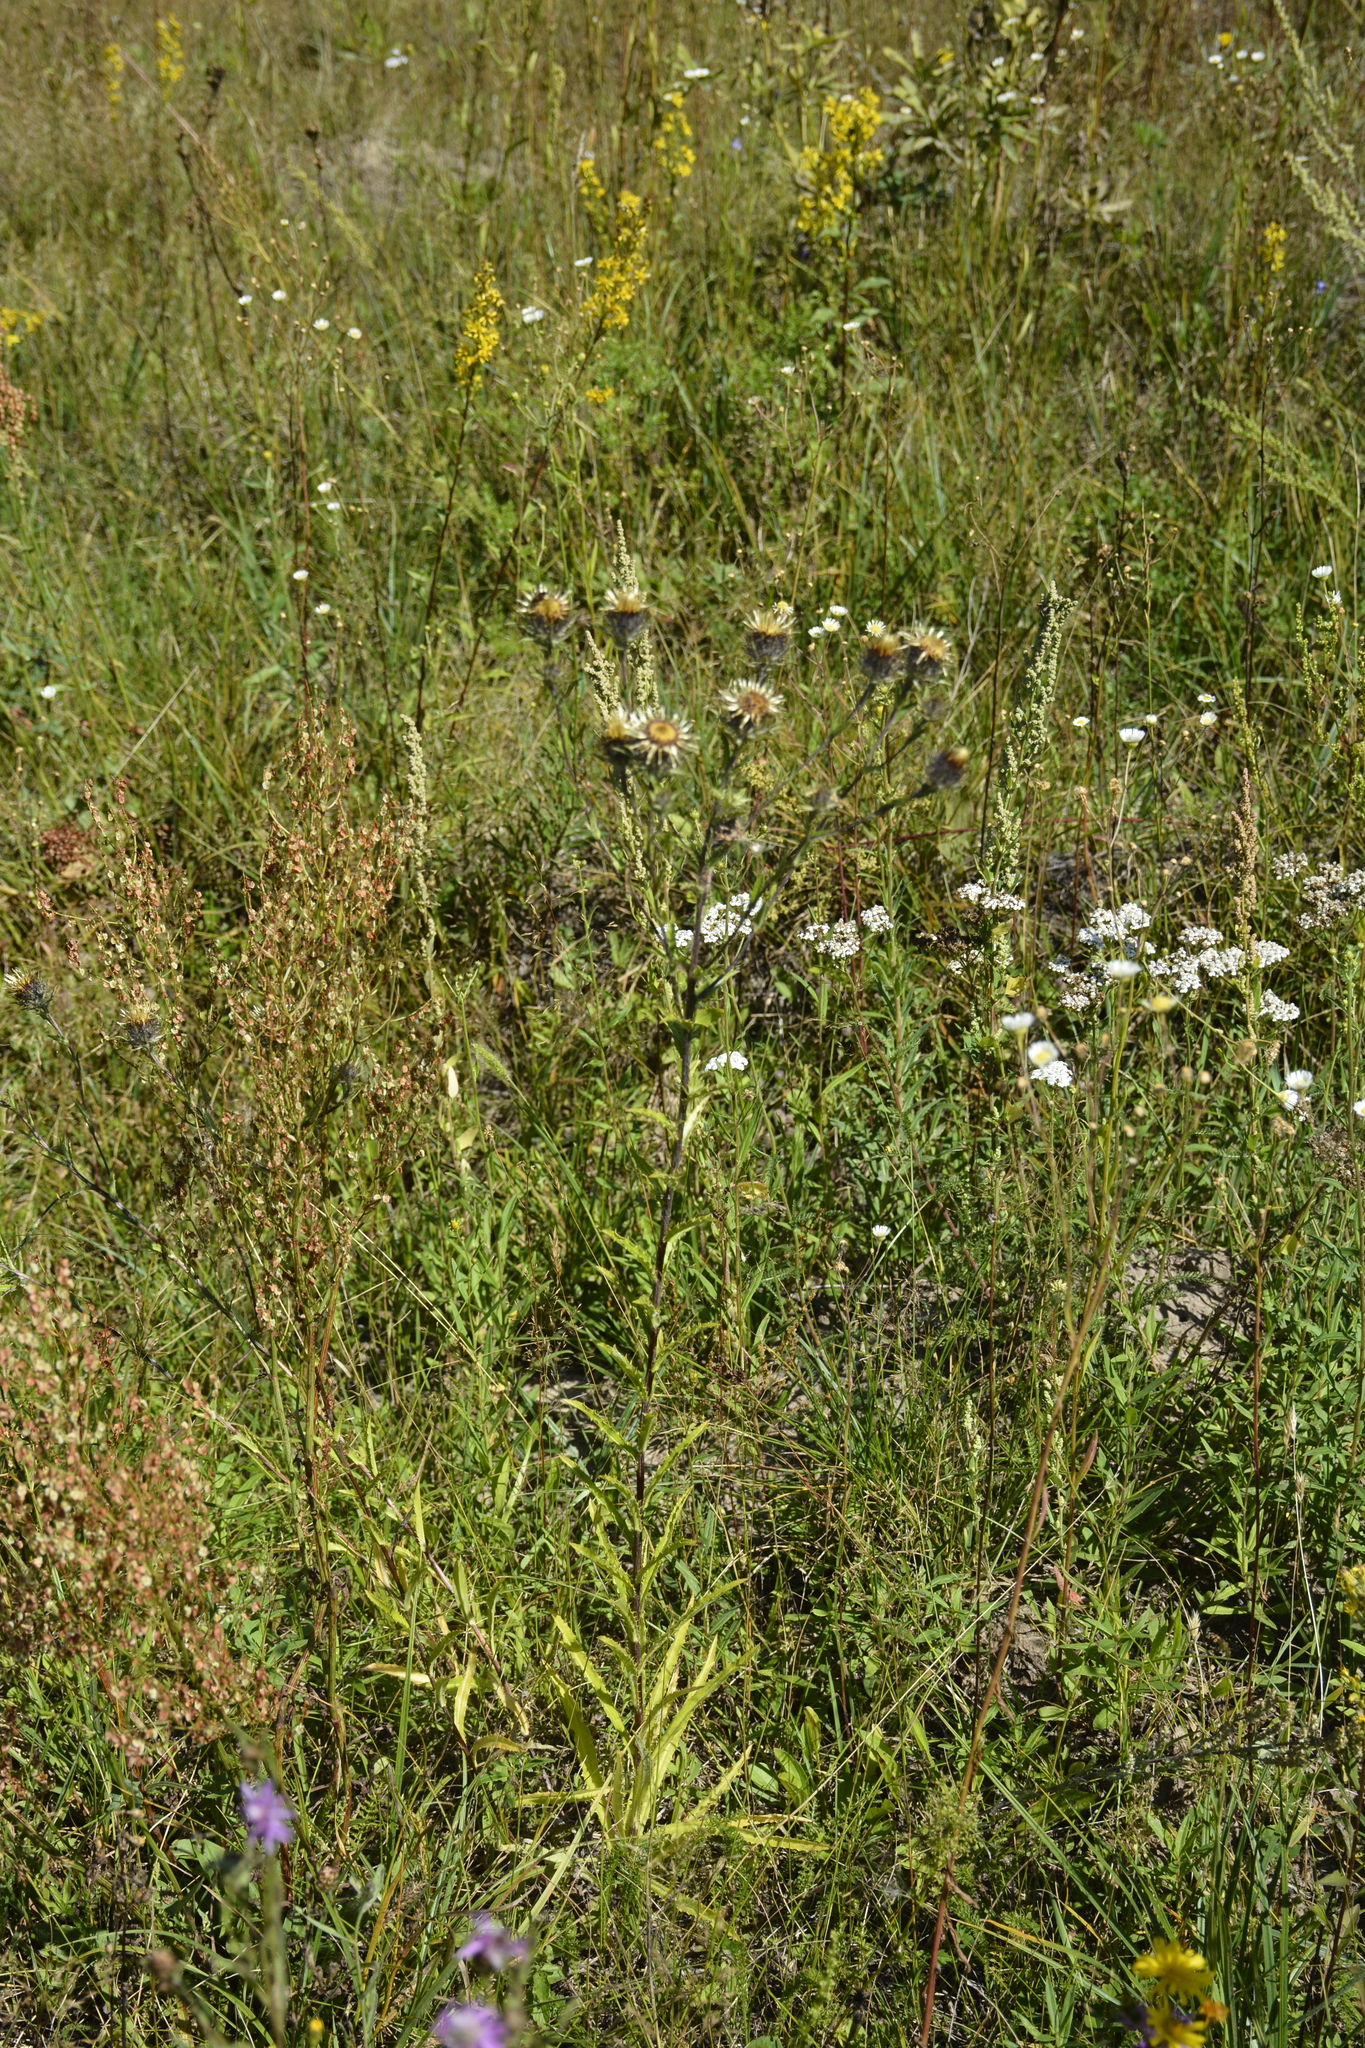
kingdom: Plantae
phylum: Tracheophyta
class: Magnoliopsida
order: Asterales
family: Asteraceae
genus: Carlina
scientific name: Carlina biebersteinii
